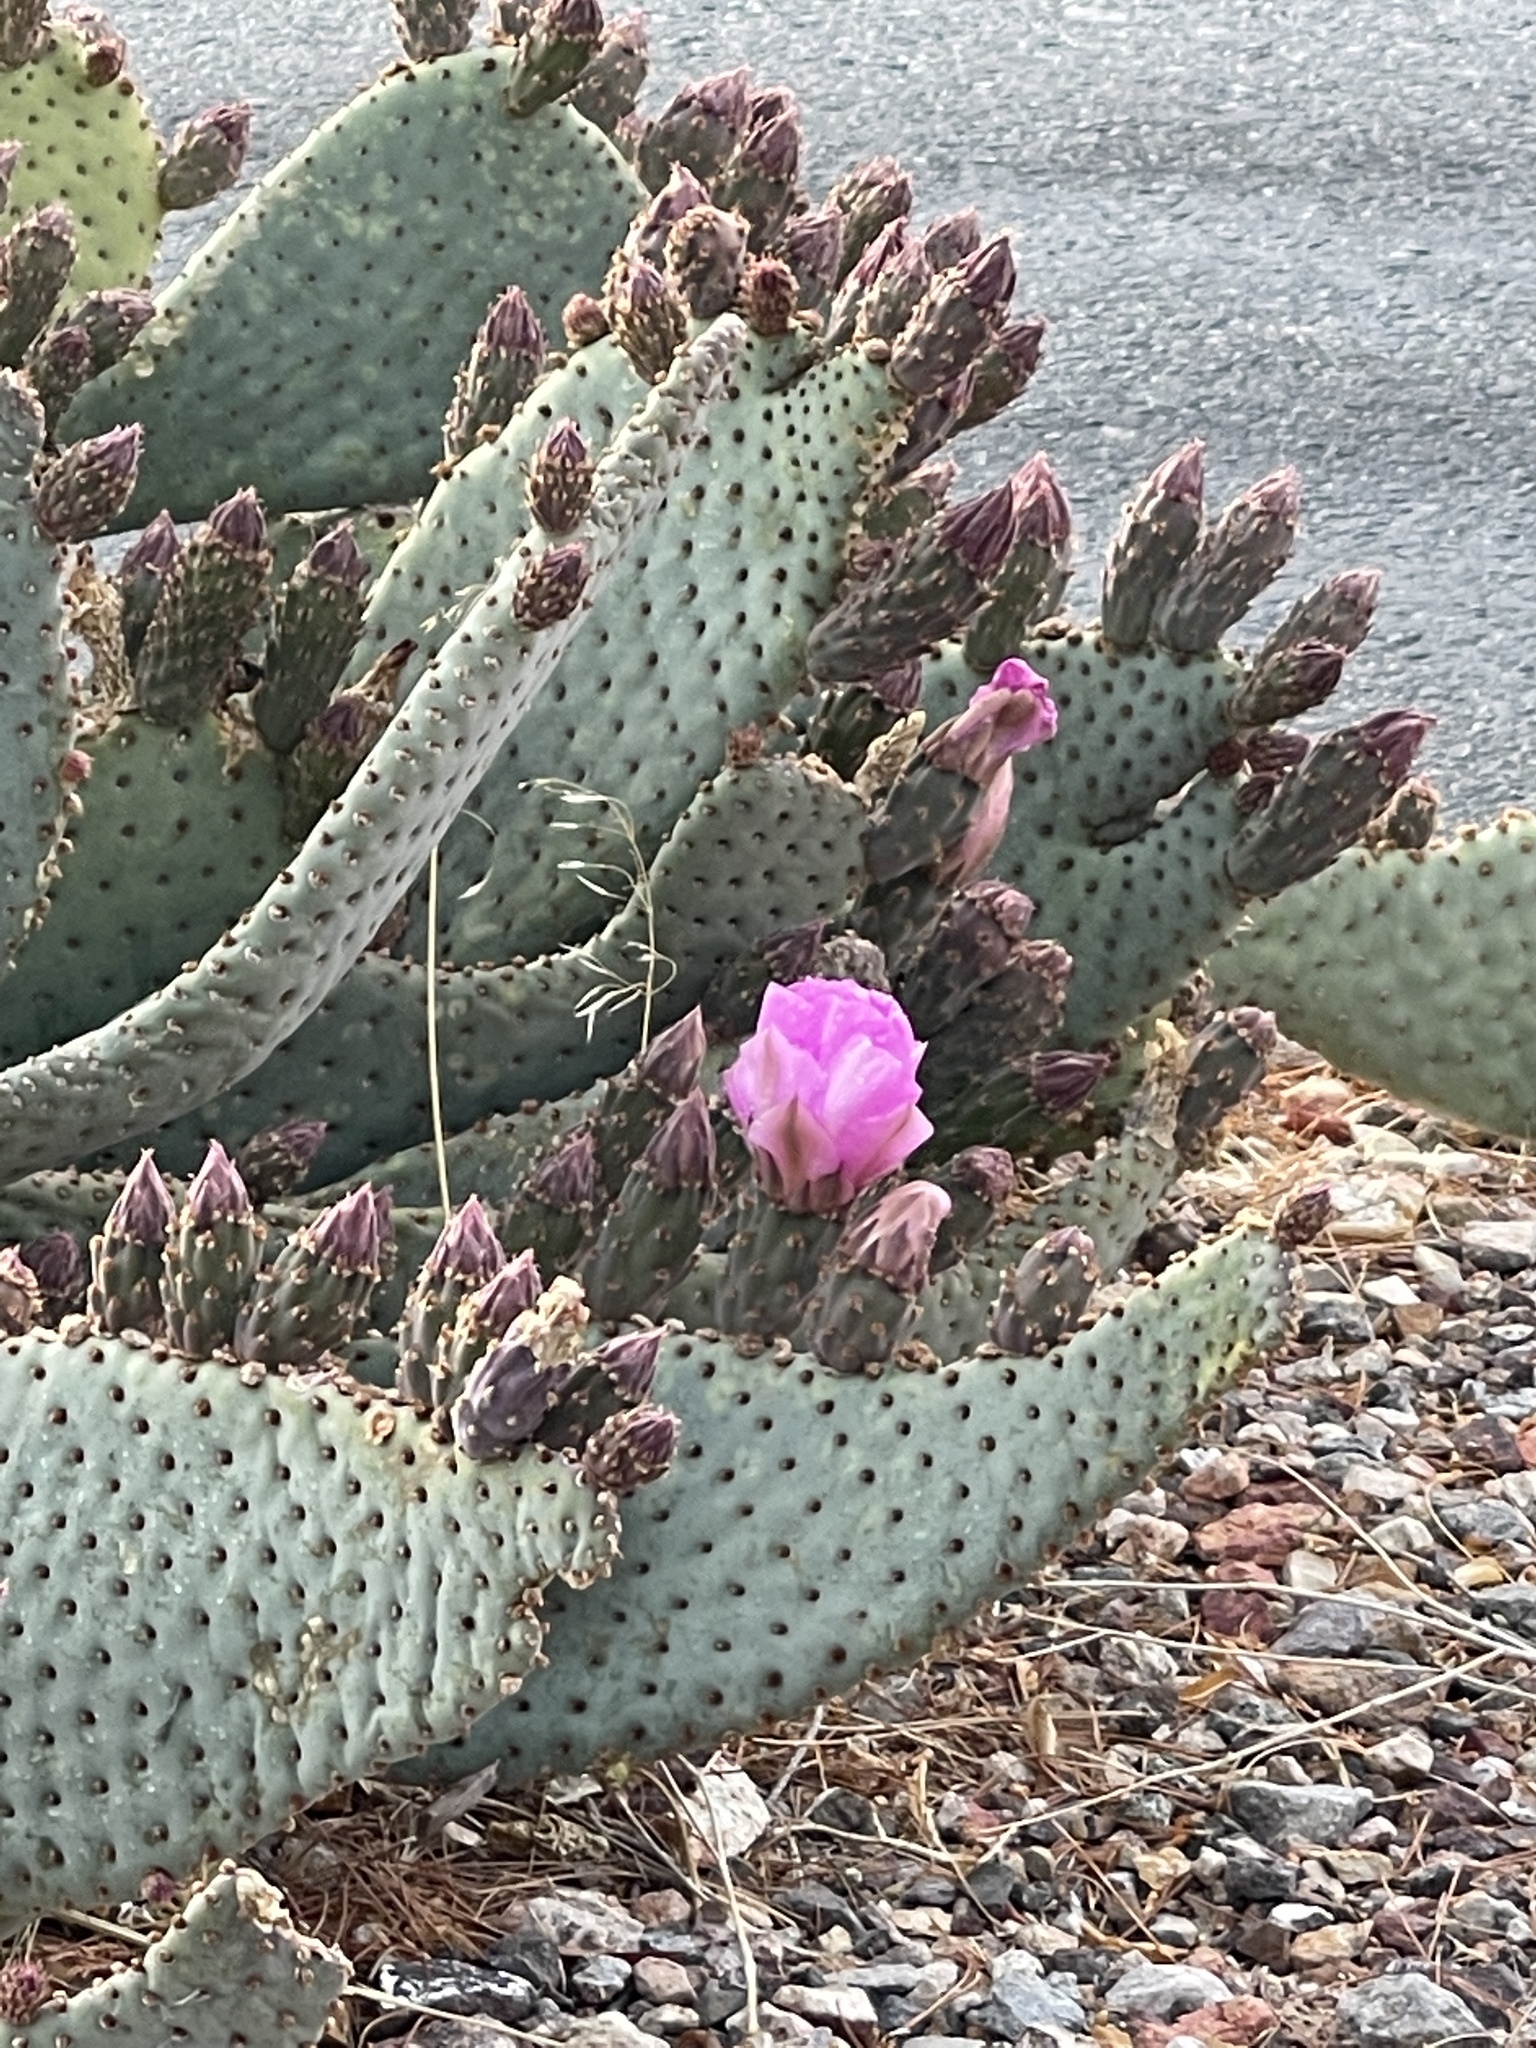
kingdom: Plantae
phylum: Tracheophyta
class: Magnoliopsida
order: Caryophyllales
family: Cactaceae
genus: Opuntia
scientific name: Opuntia basilaris
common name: Beavertail prickly-pear
